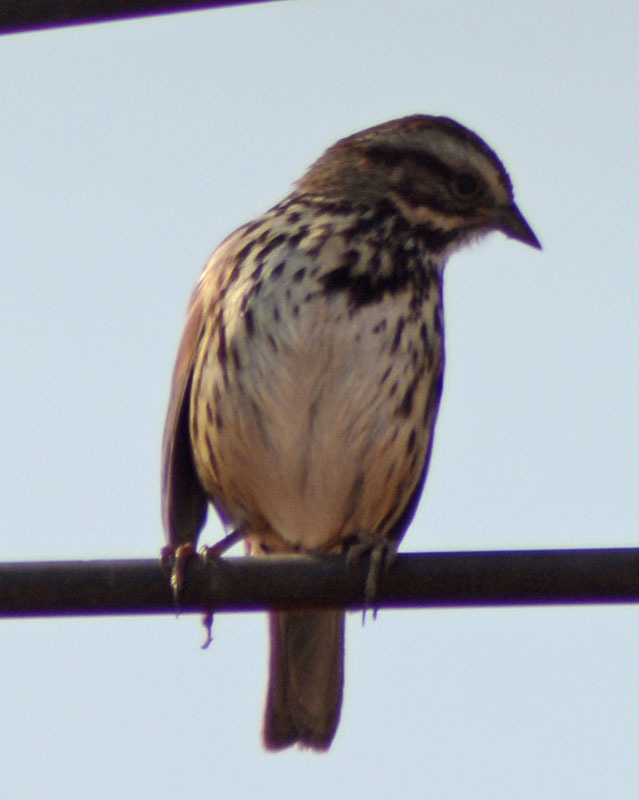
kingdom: Animalia
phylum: Chordata
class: Aves
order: Passeriformes
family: Passerellidae
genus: Melospiza
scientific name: Melospiza melodia
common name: Song sparrow
